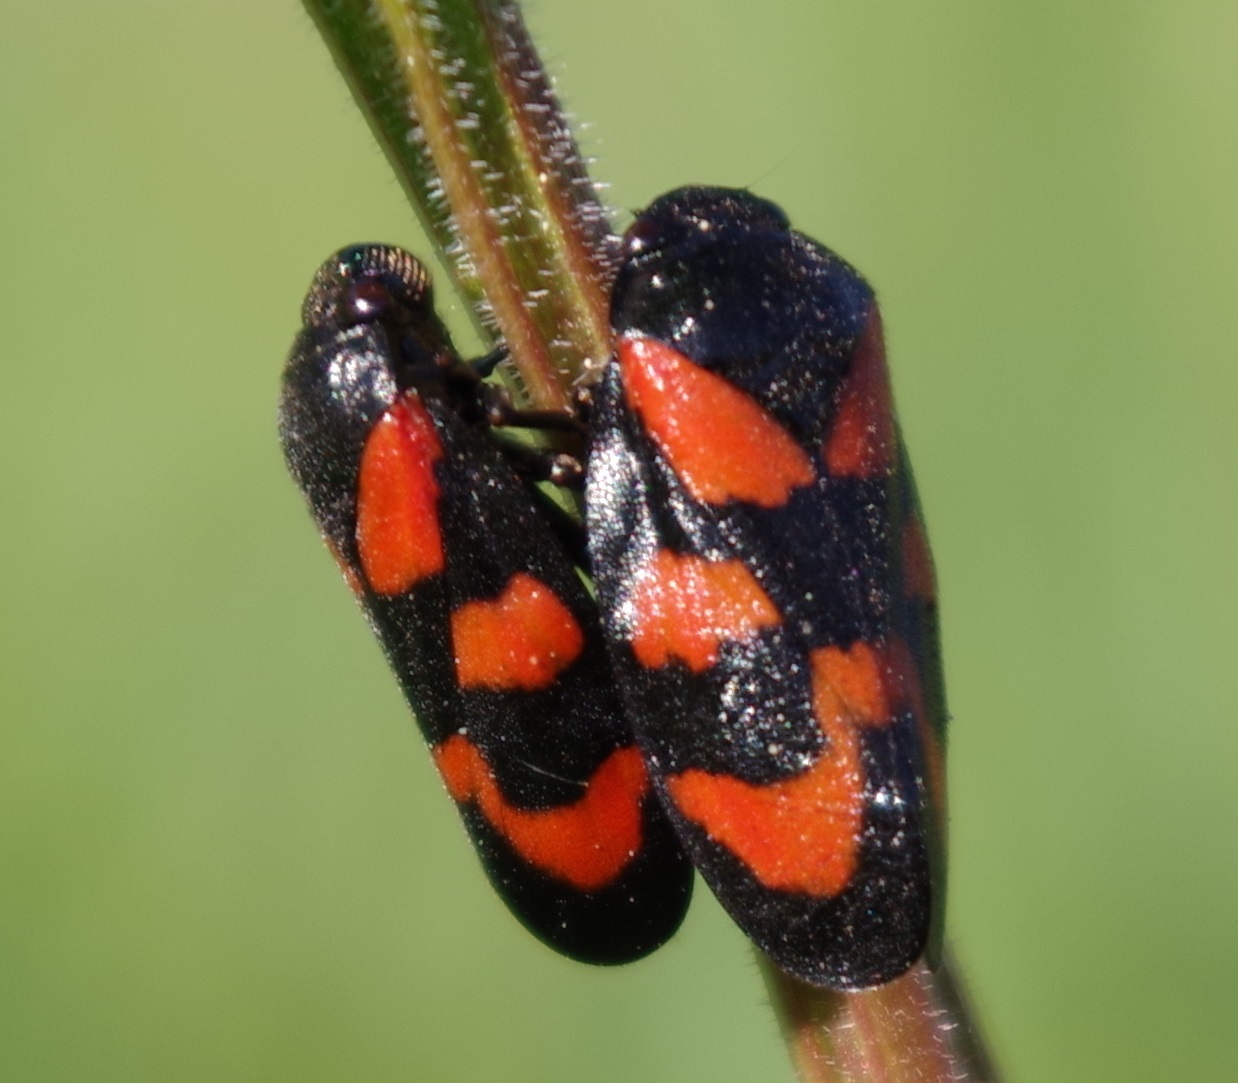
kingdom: Animalia
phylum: Arthropoda
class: Insecta
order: Hemiptera
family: Cercopidae
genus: Cercopis
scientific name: Cercopis vulnerata
